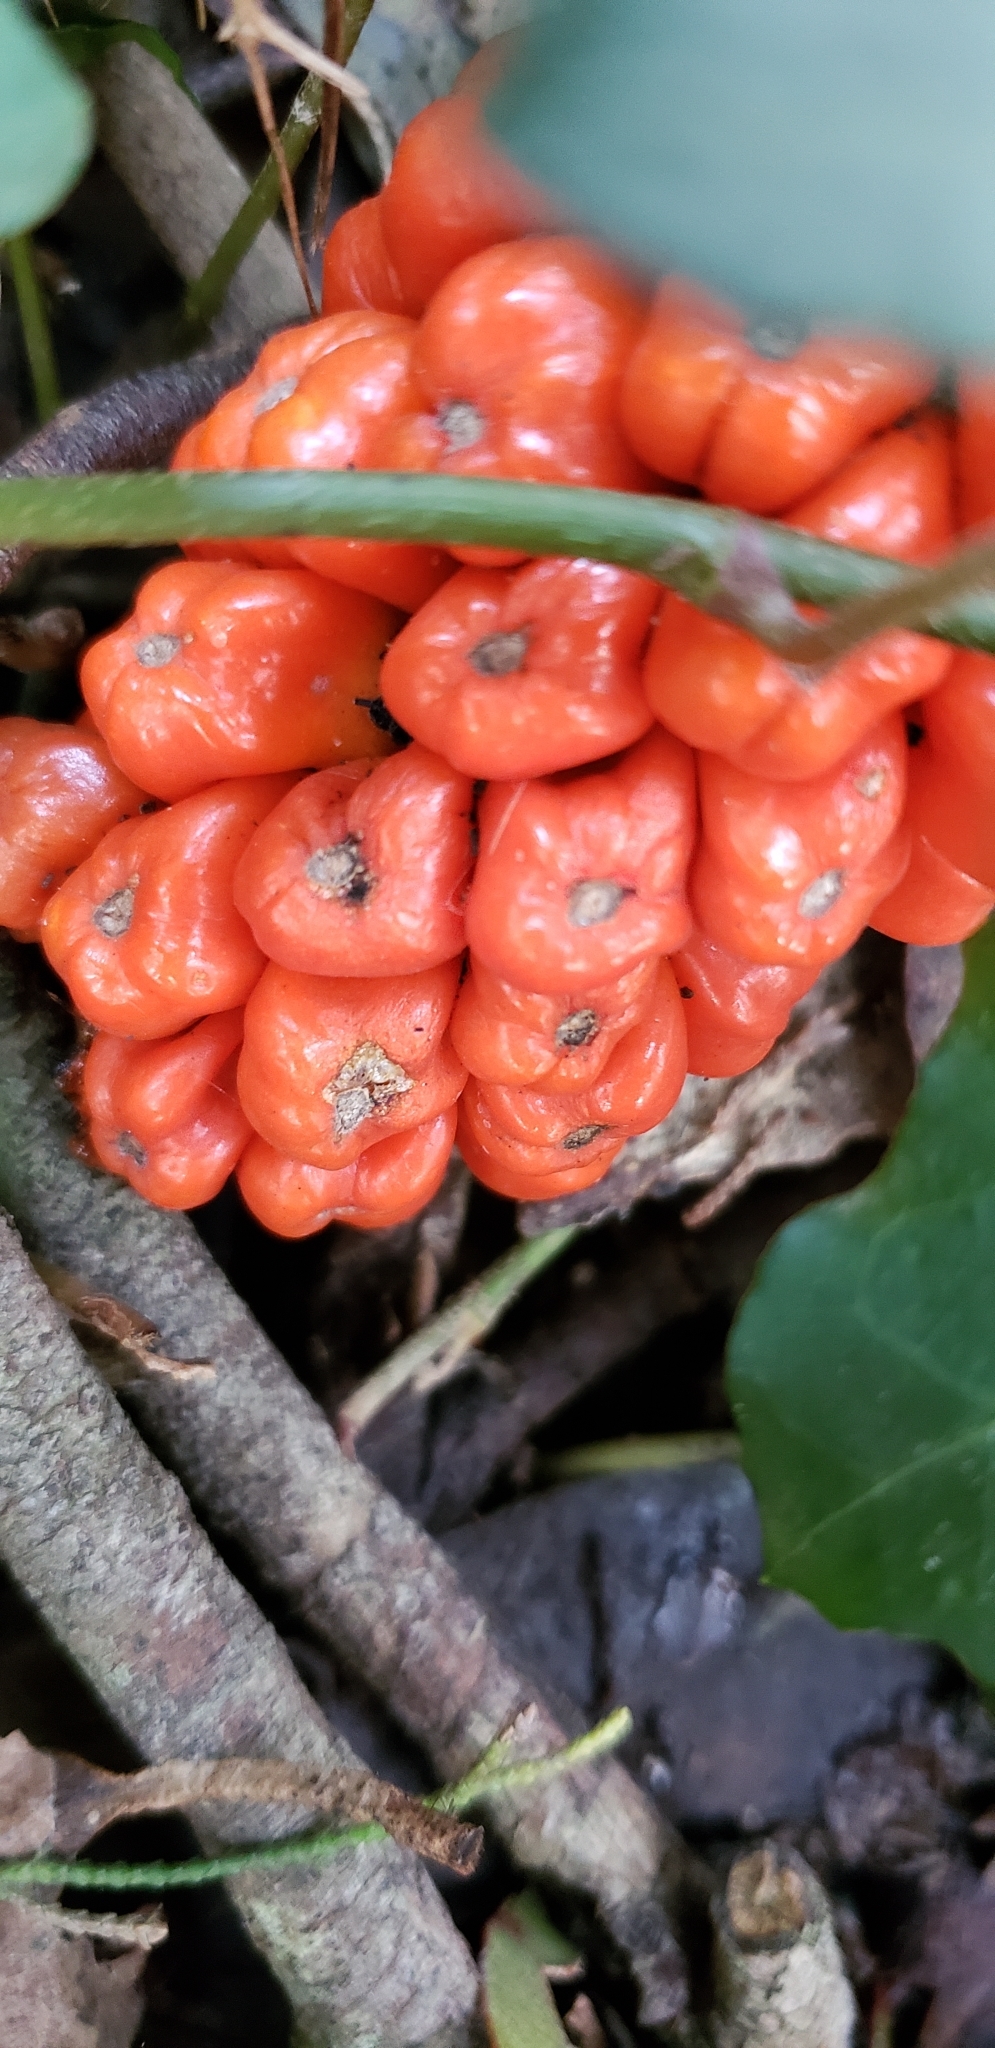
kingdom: Plantae
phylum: Tracheophyta
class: Liliopsida
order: Alismatales
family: Araceae
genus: Arum
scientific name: Arum italicum
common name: Italian lords-and-ladies
